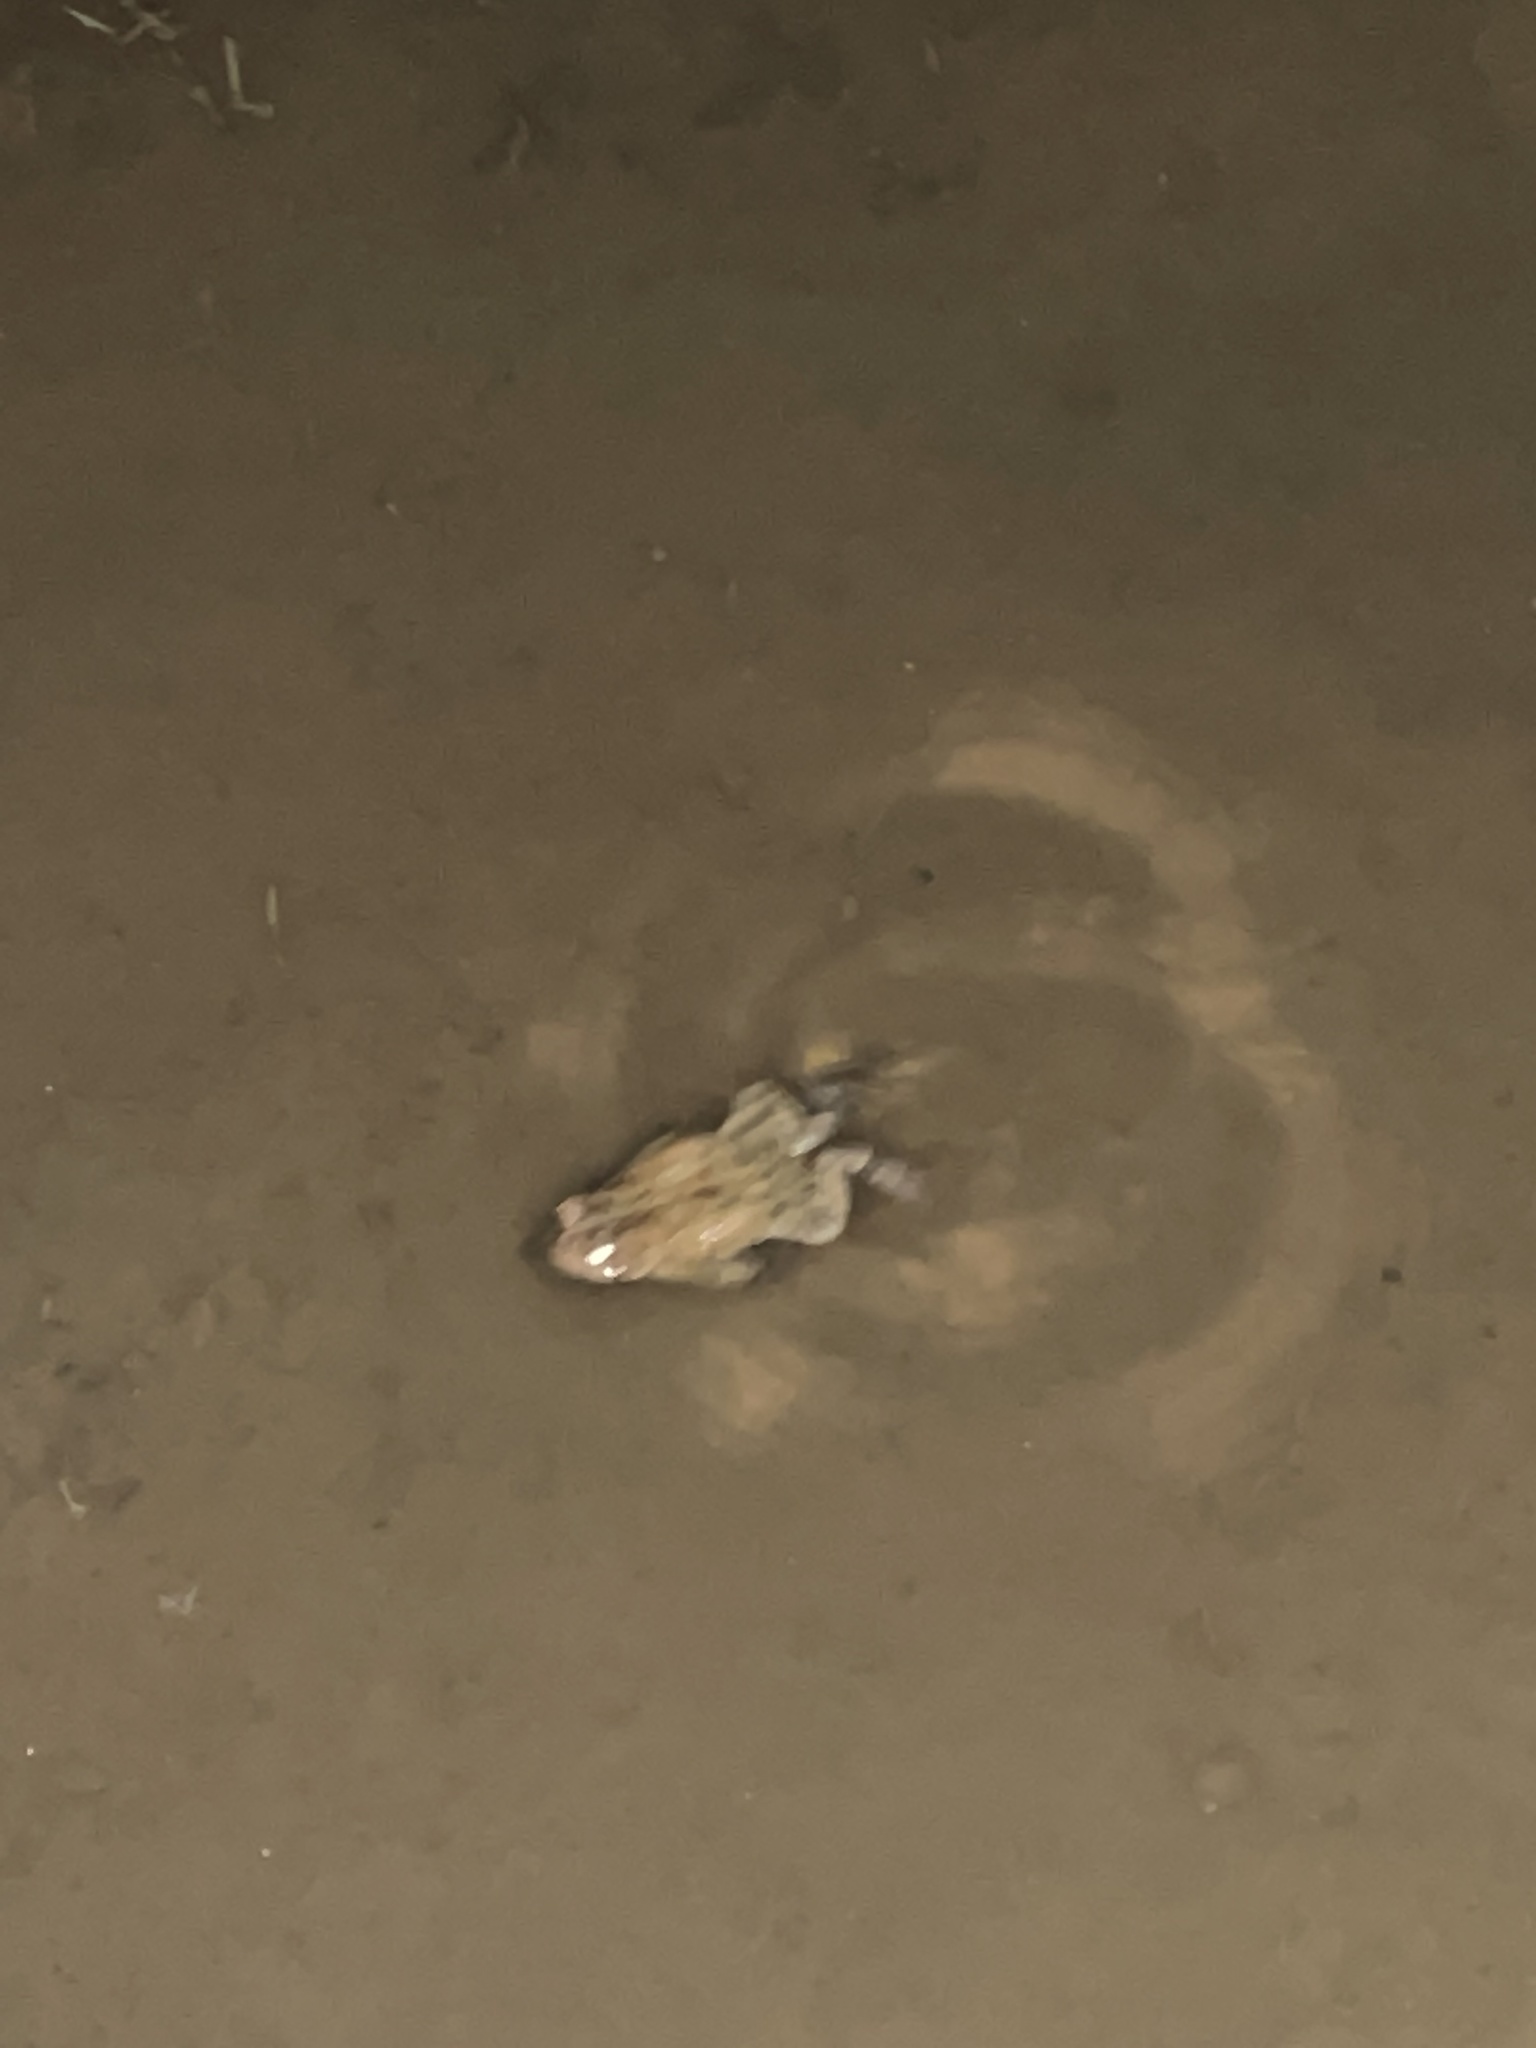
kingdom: Animalia
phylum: Chordata
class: Amphibia
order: Anura
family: Bufonidae
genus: Anaxyrus
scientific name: Anaxyrus americanus
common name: American toad
